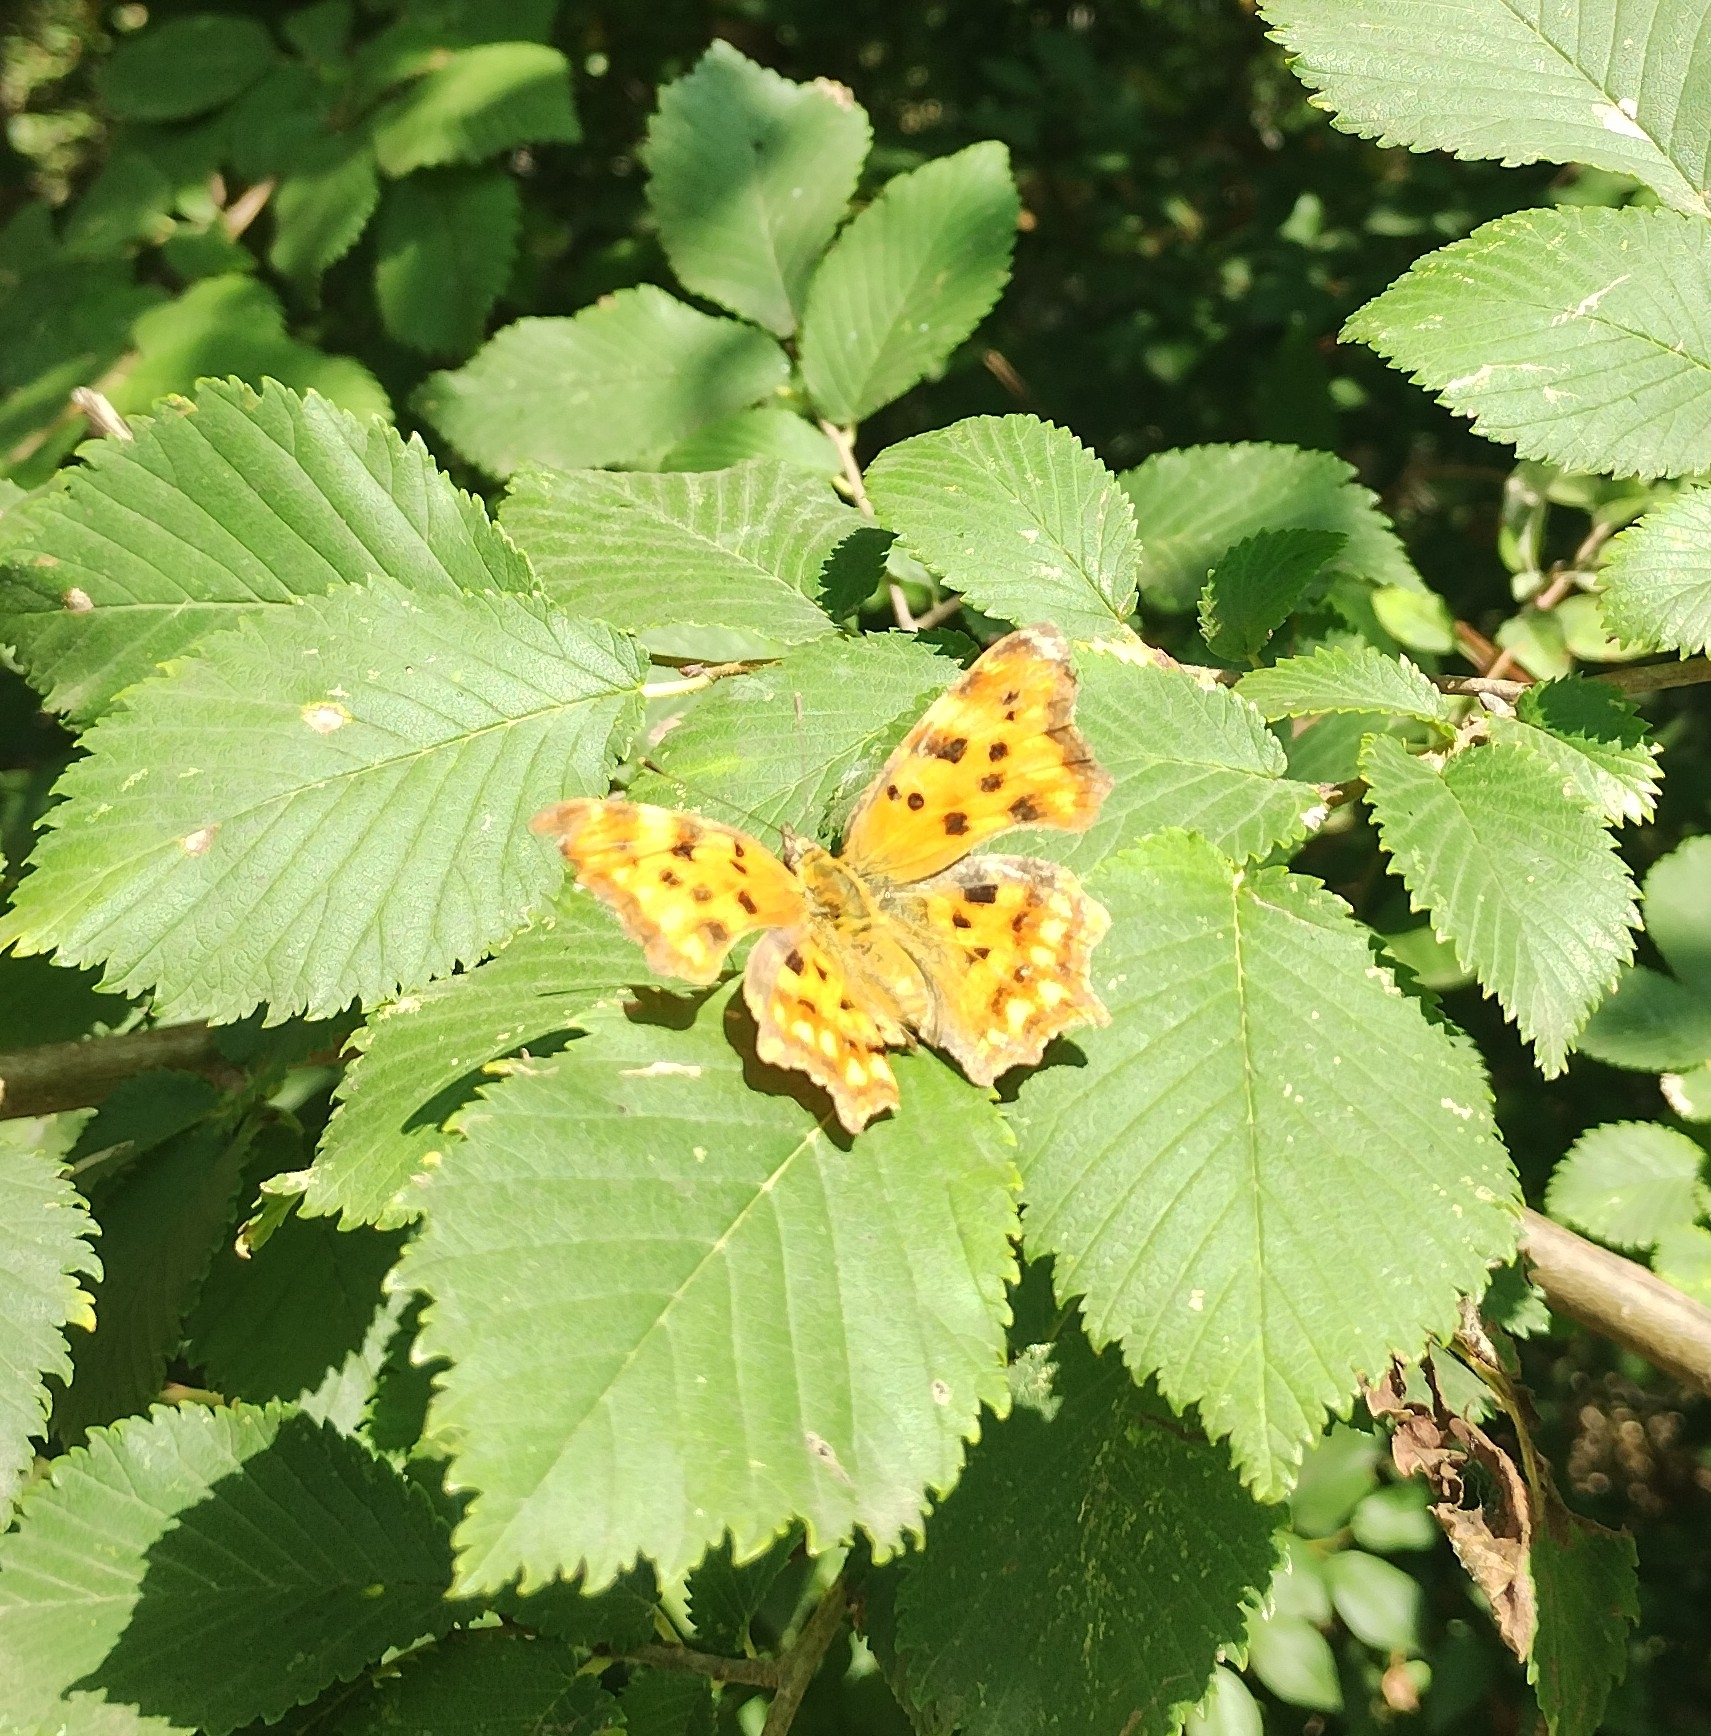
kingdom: Animalia
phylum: Arthropoda
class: Insecta
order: Lepidoptera
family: Nymphalidae
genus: Polygonia
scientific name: Polygonia c-album
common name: Comma
